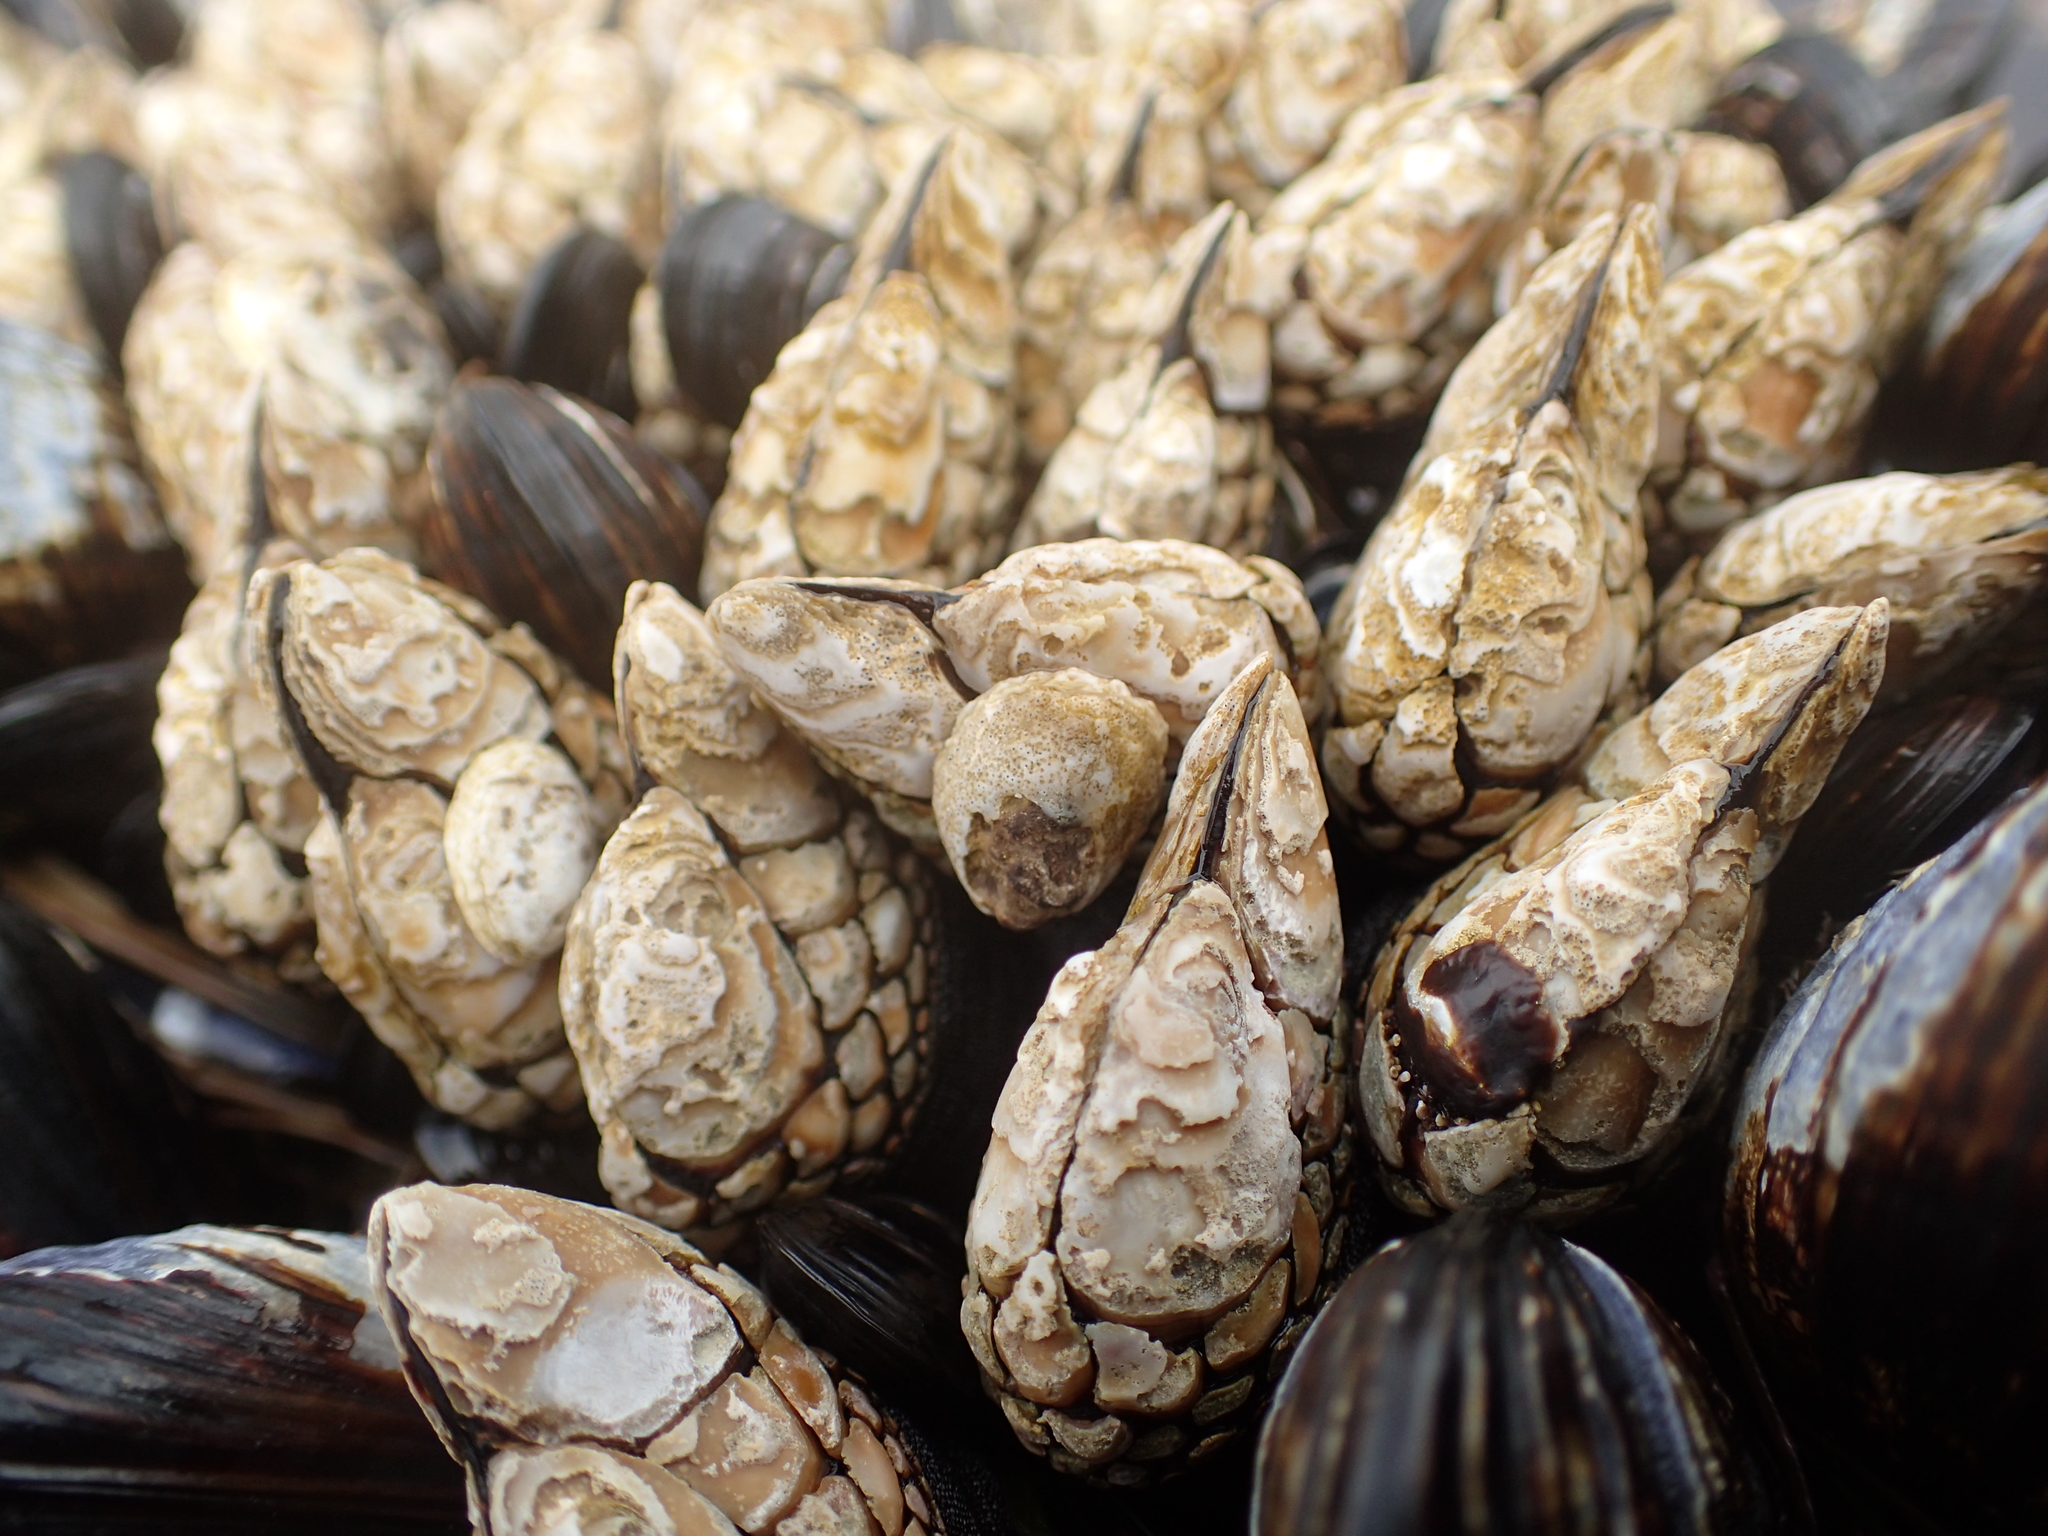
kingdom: Animalia
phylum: Arthropoda
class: Maxillopoda
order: Pedunculata
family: Pollicipedidae
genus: Pollicipes
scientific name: Pollicipes polymerus
